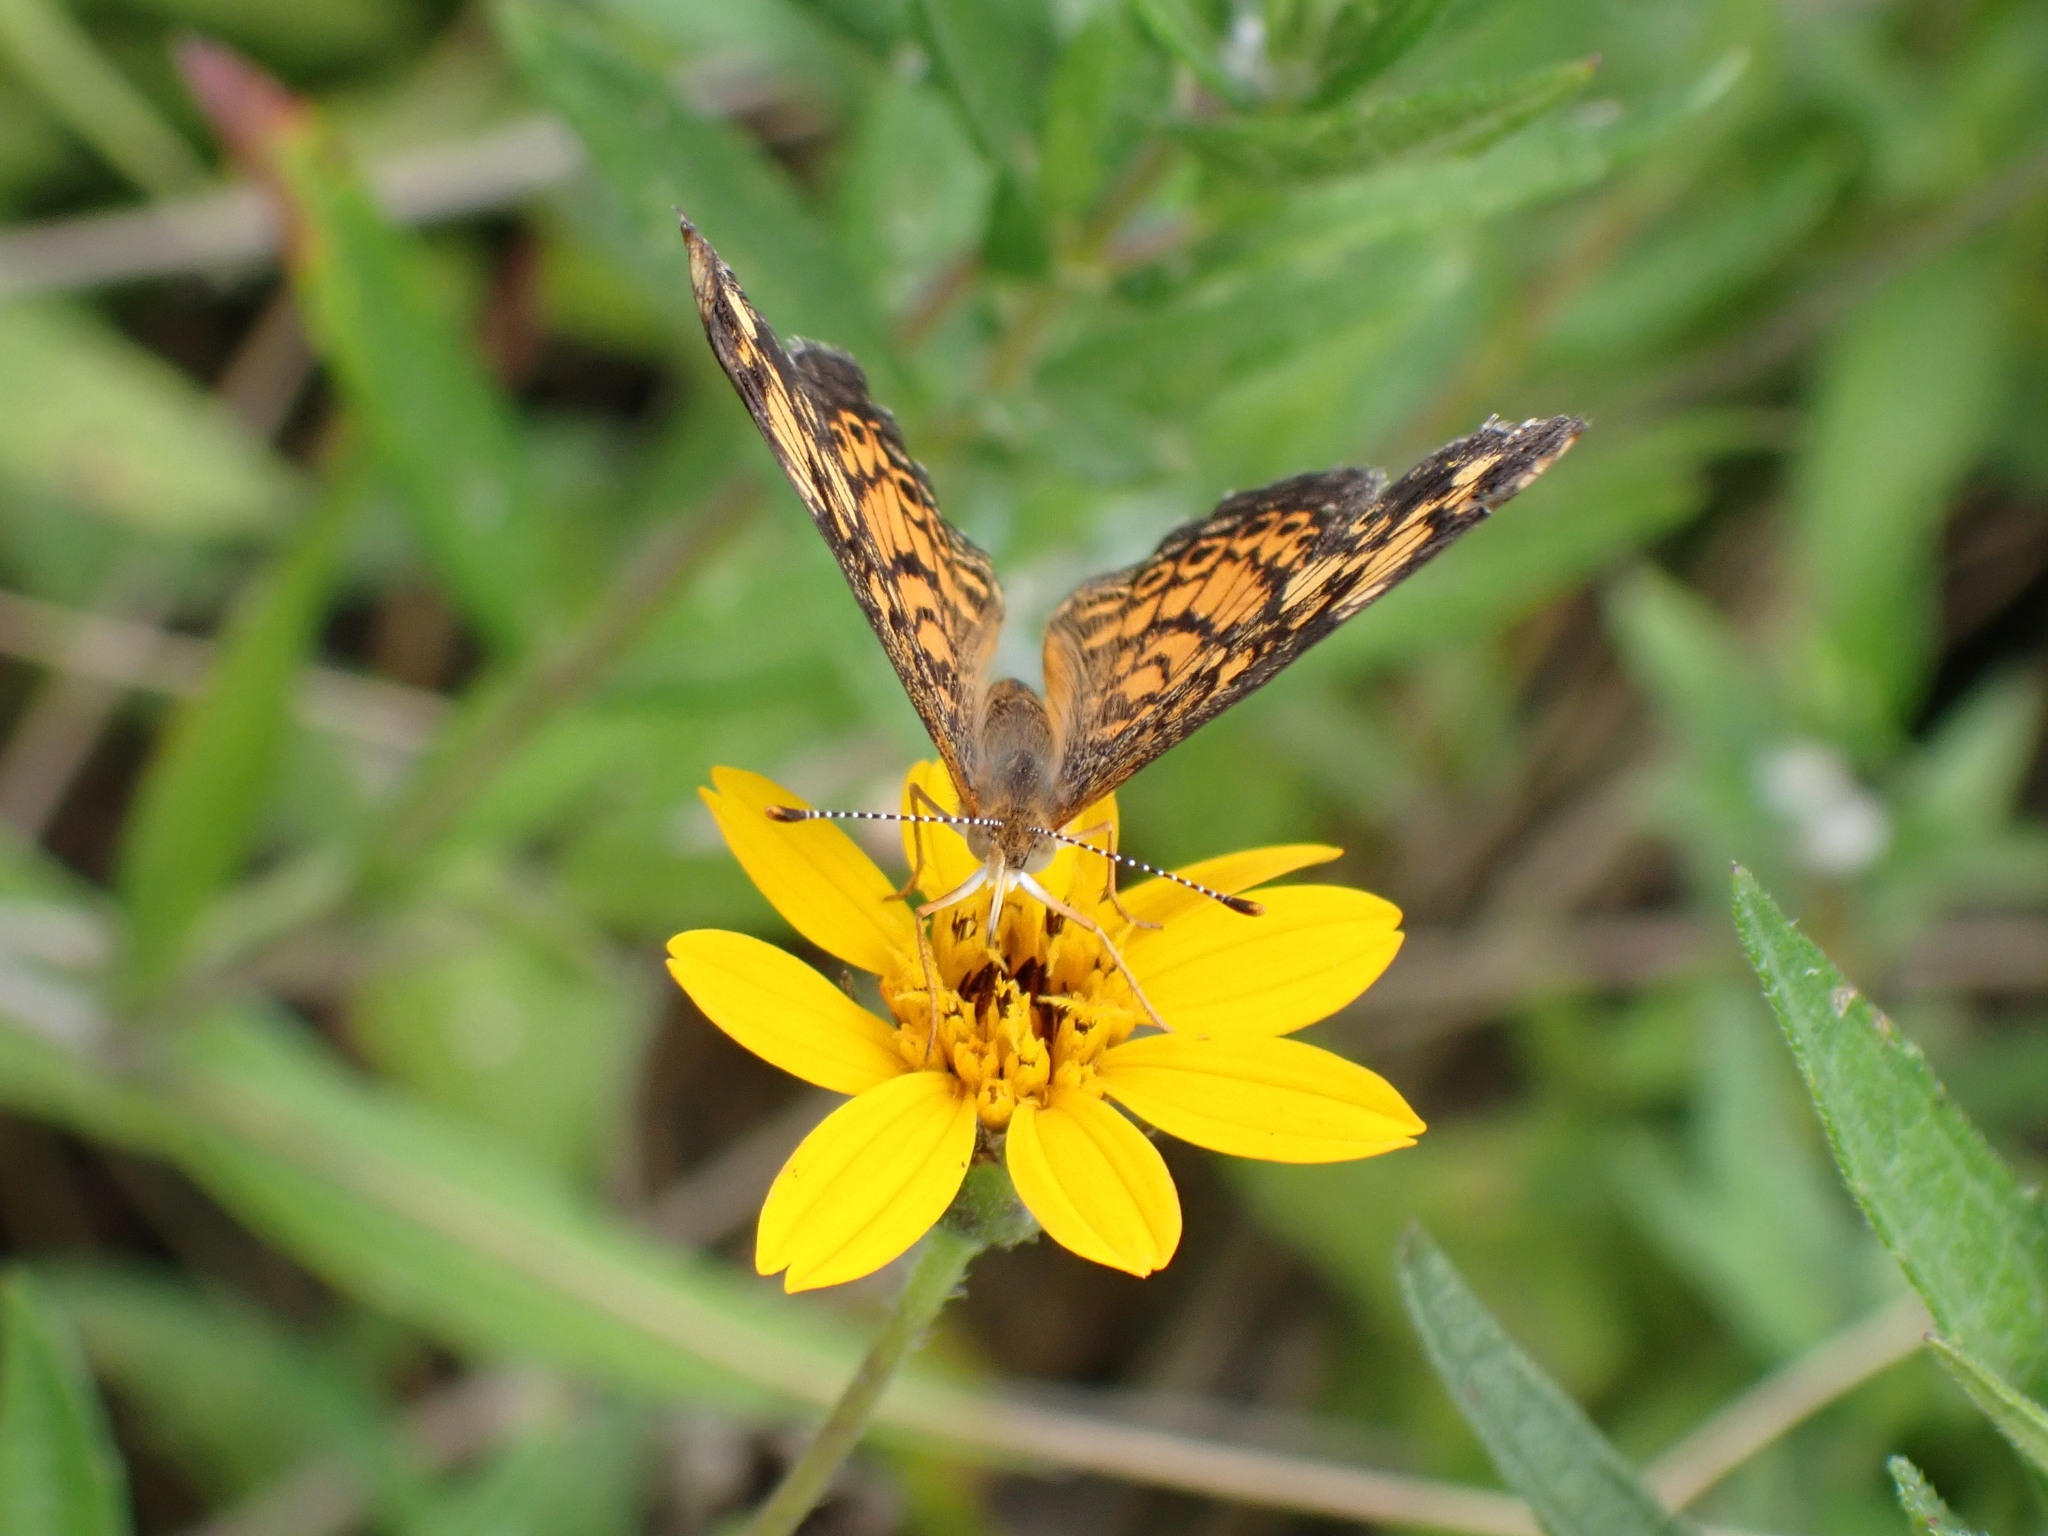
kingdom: Animalia
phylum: Arthropoda
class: Insecta
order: Lepidoptera
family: Nymphalidae
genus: Phyciodes
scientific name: Phyciodes tharos
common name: Pearl crescent
